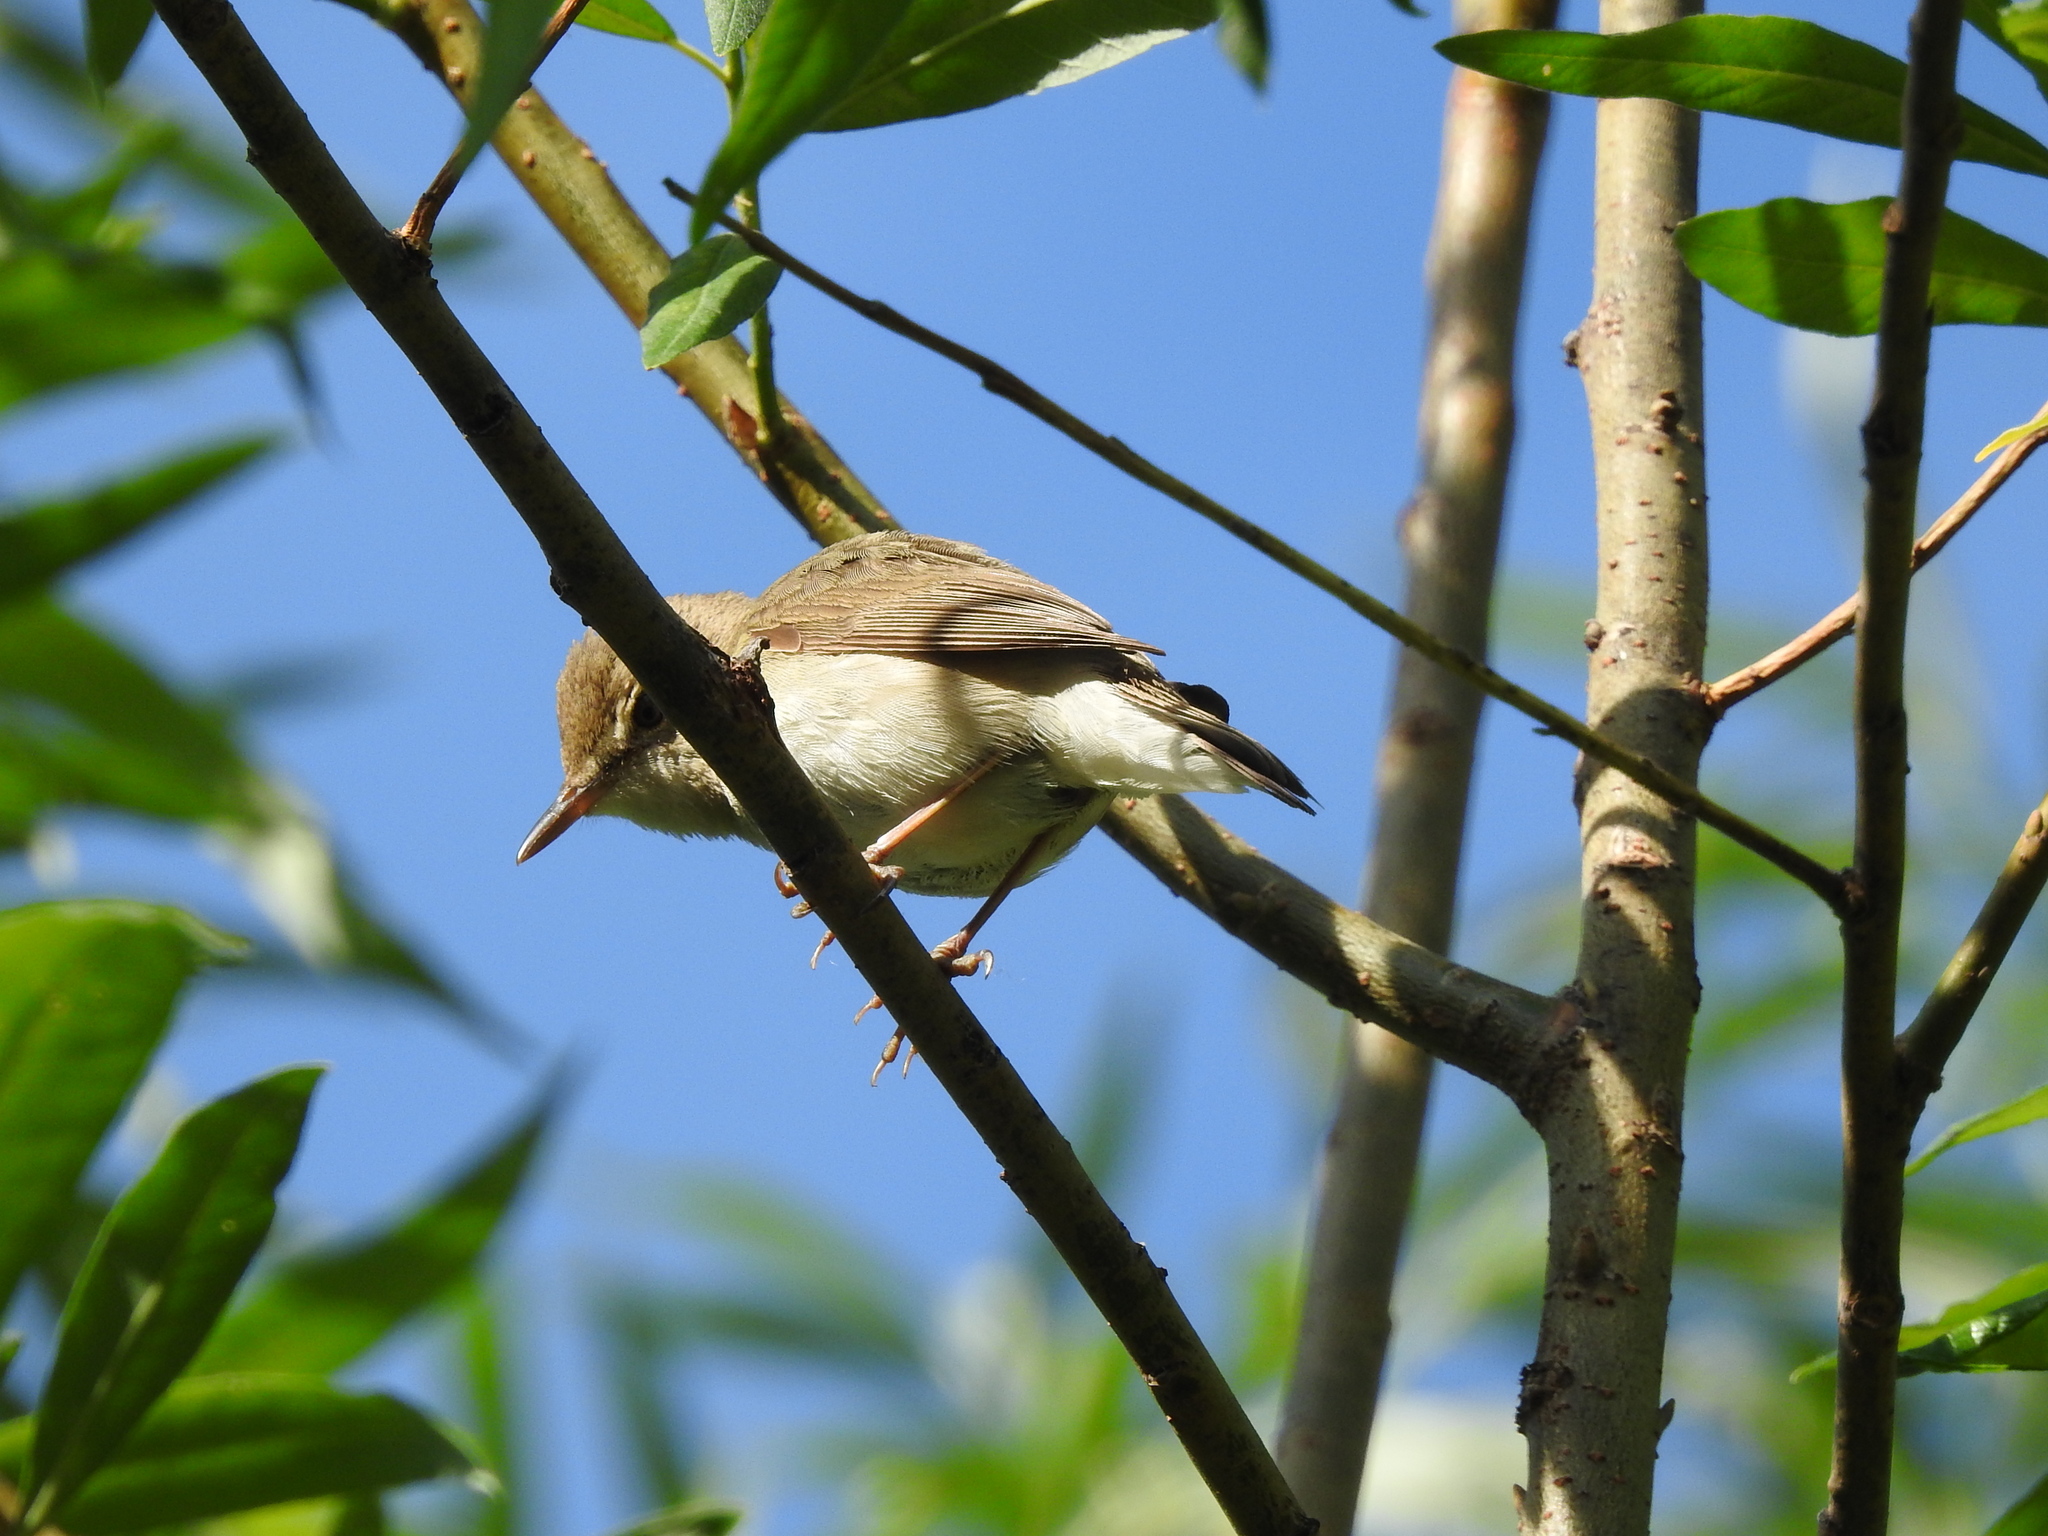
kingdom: Animalia
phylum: Chordata
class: Aves
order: Passeriformes
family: Acrocephalidae
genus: Acrocephalus
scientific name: Acrocephalus dumetorum
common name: Blyth's reed warbler
